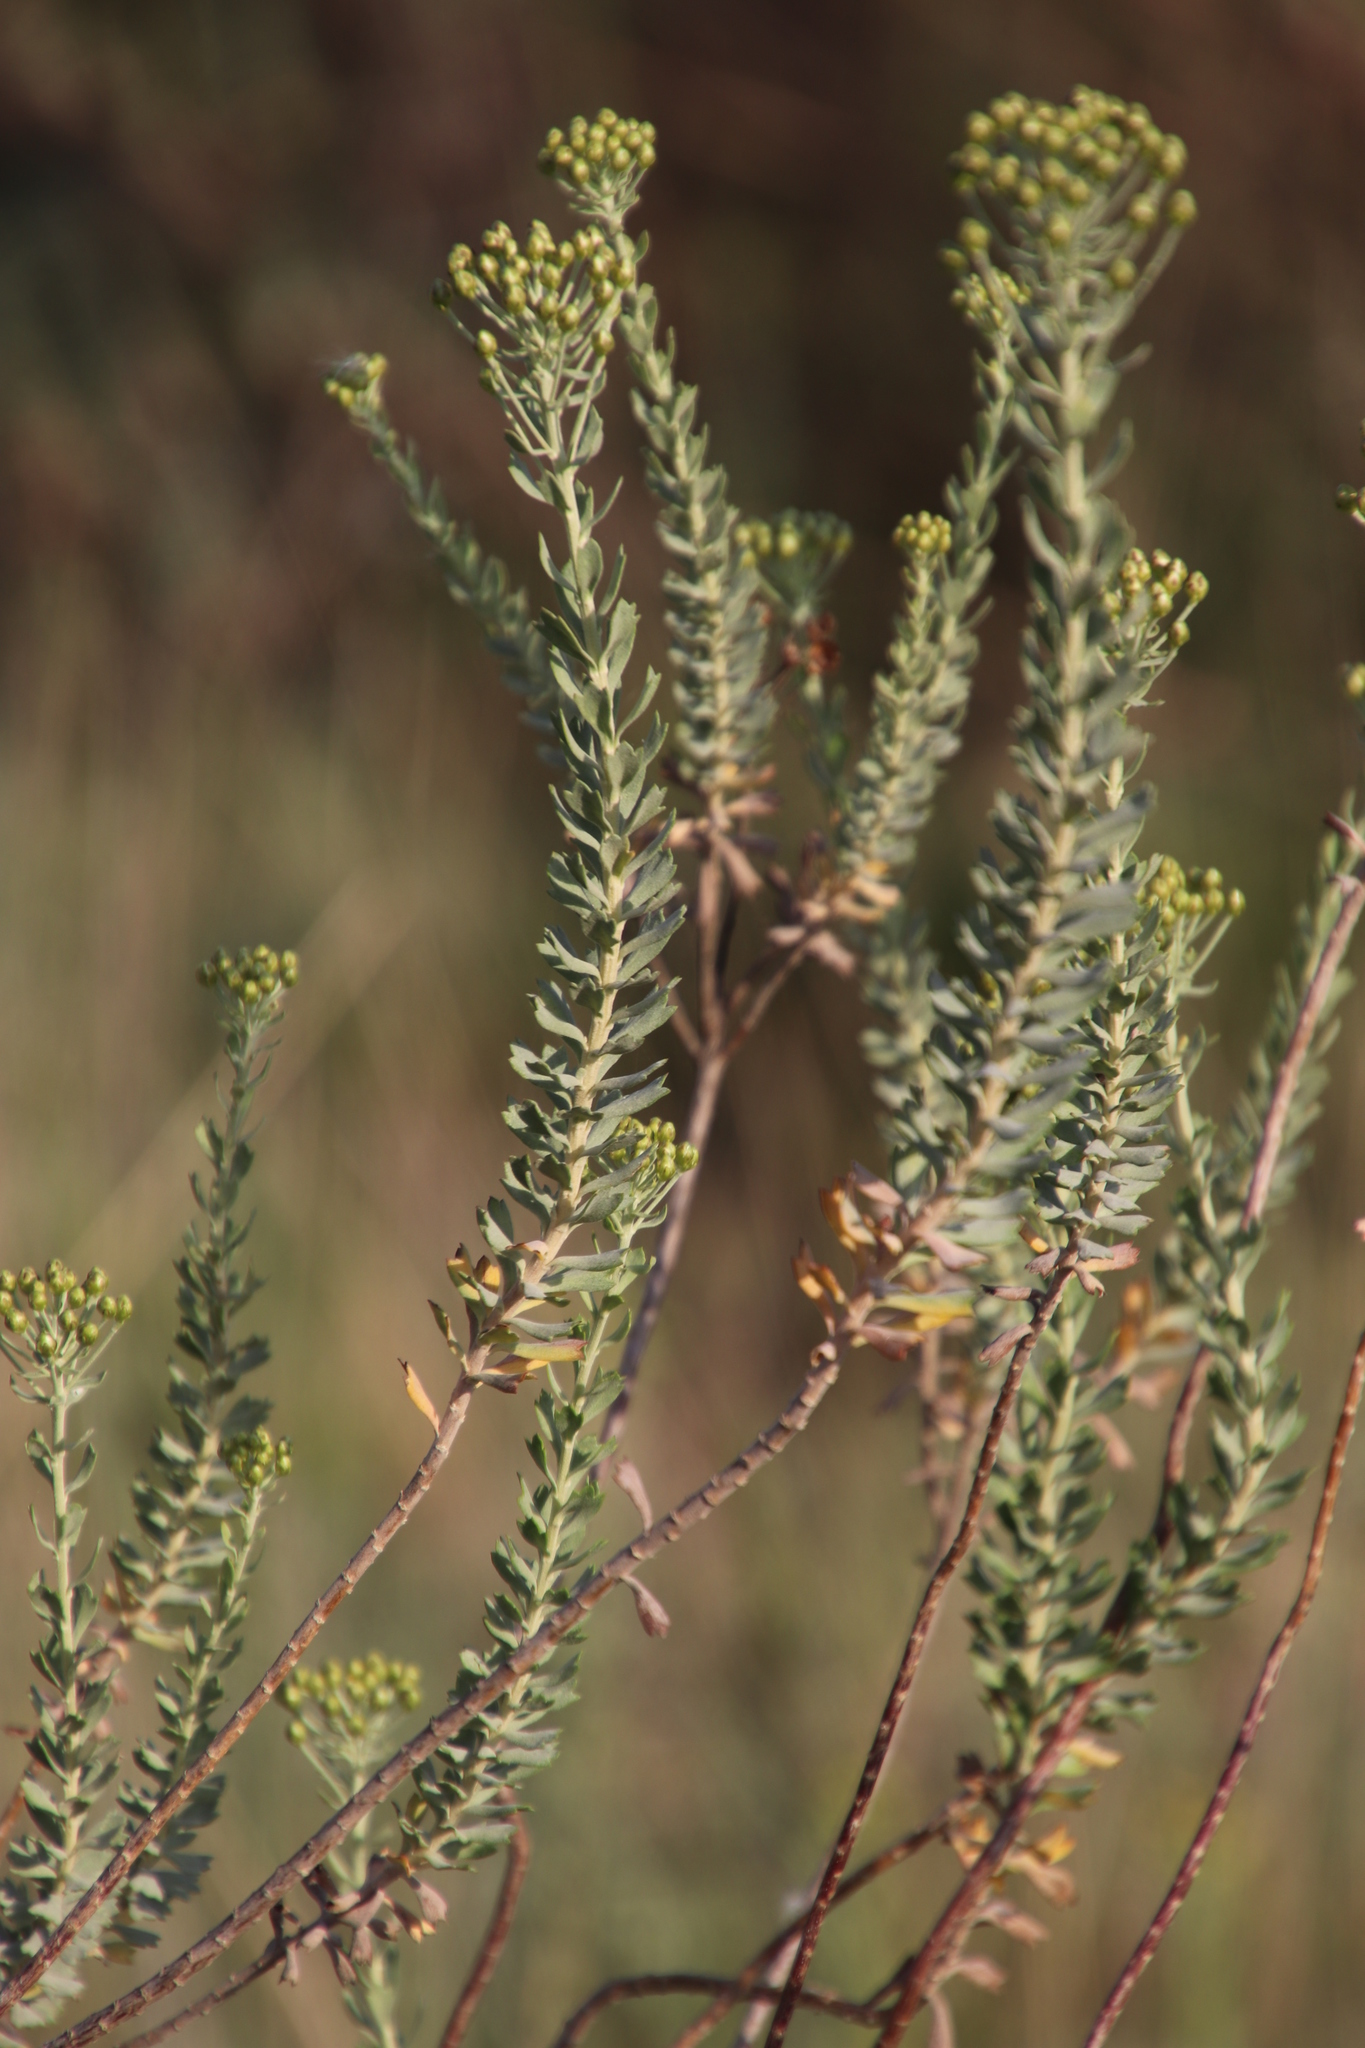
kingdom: Plantae
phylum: Tracheophyta
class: Magnoliopsida
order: Asterales
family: Asteraceae
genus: Athanasia
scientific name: Athanasia trifurcata
